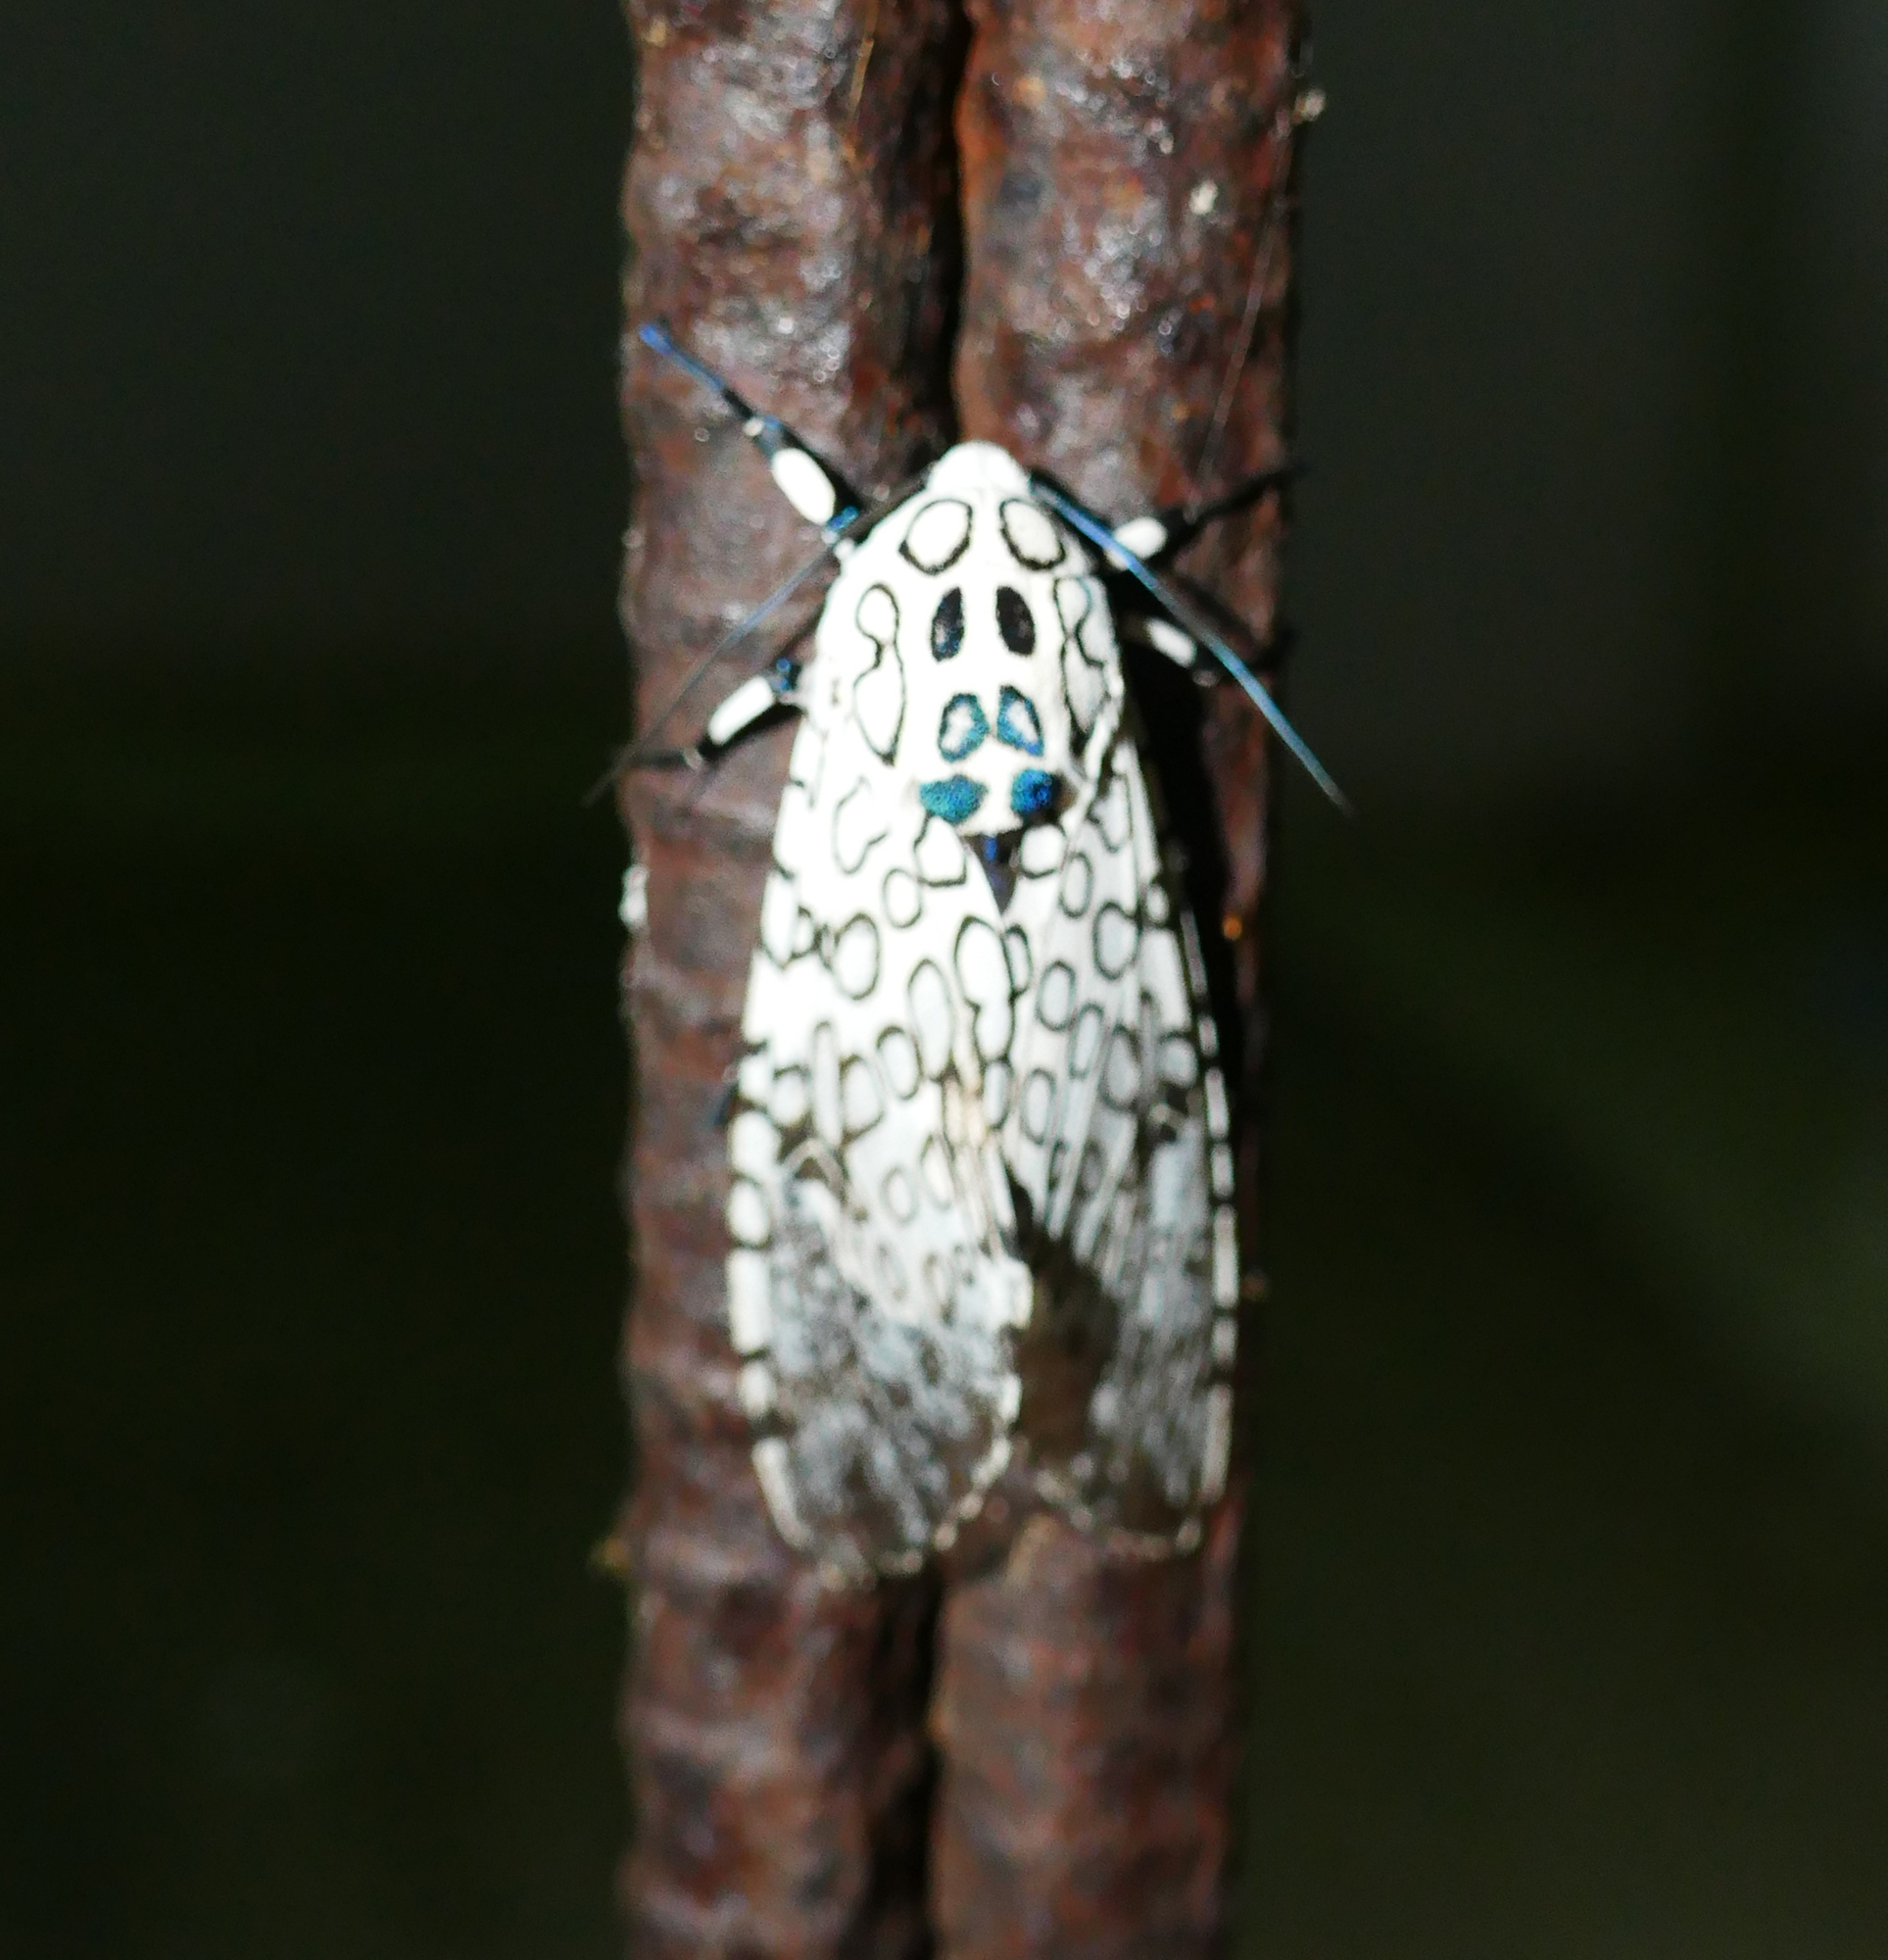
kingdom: Animalia
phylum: Arthropoda
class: Insecta
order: Lepidoptera
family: Erebidae
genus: Hypercompe
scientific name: Hypercompe scribonia
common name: Giant leopard moth
